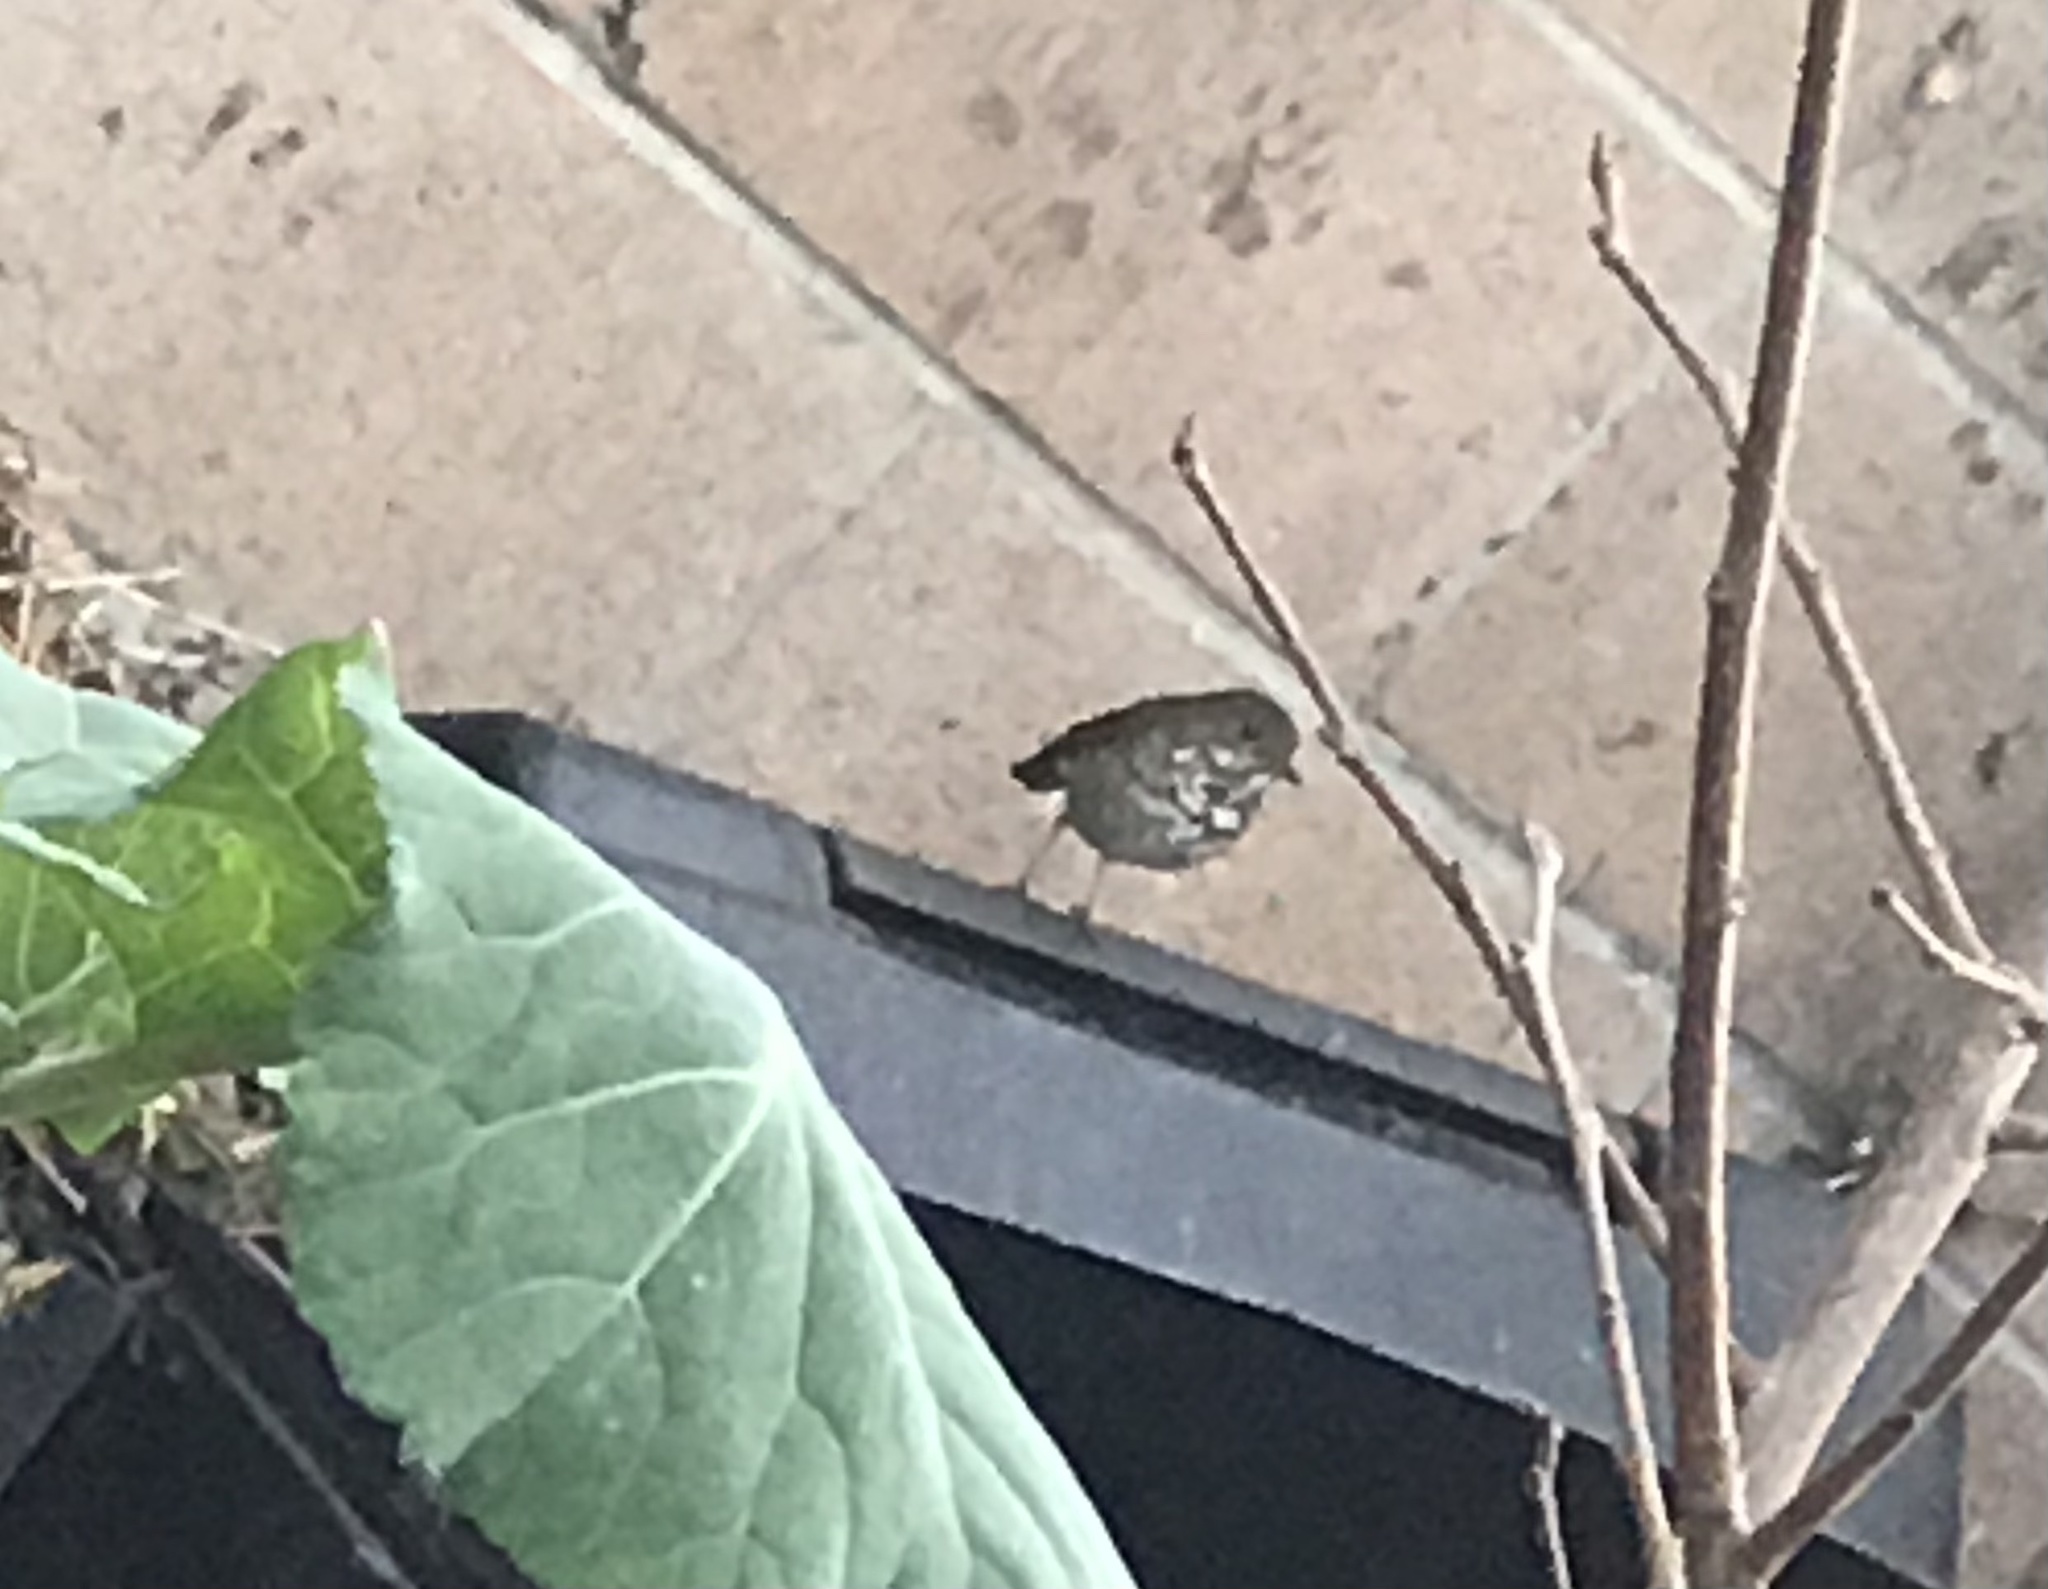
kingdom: Animalia
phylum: Chordata
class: Aves
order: Passeriformes
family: Turdidae
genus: Catharus
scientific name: Catharus guttatus
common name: Hermit thrush
